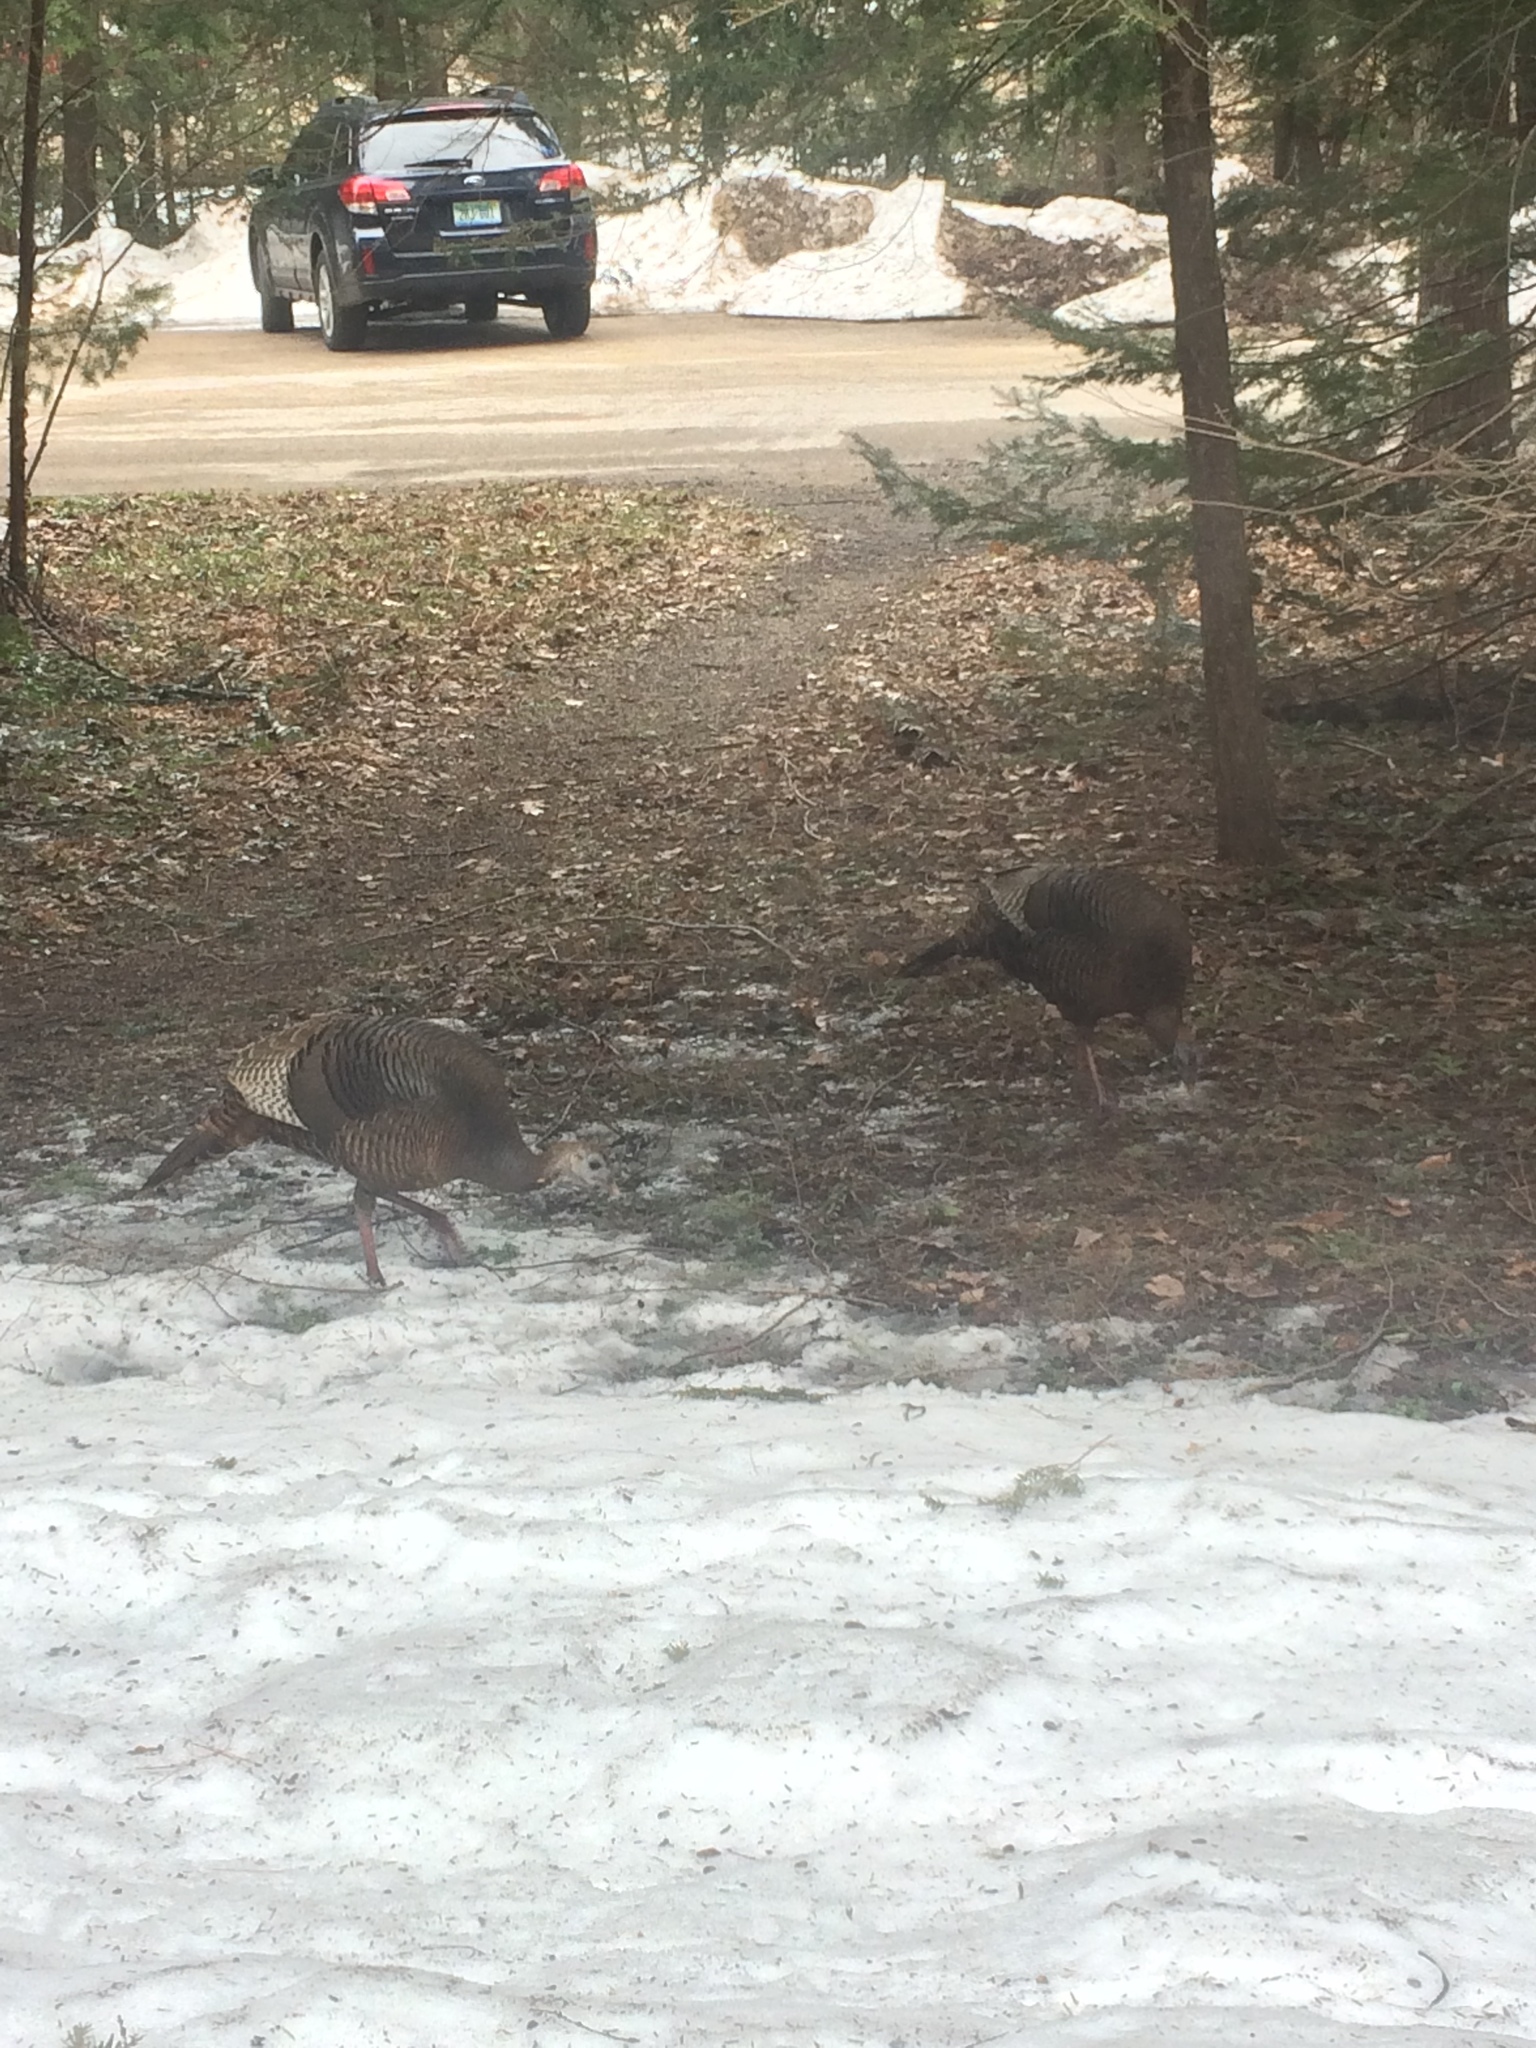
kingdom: Animalia
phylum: Chordata
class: Aves
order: Galliformes
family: Phasianidae
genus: Meleagris
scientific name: Meleagris gallopavo
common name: Wild turkey
